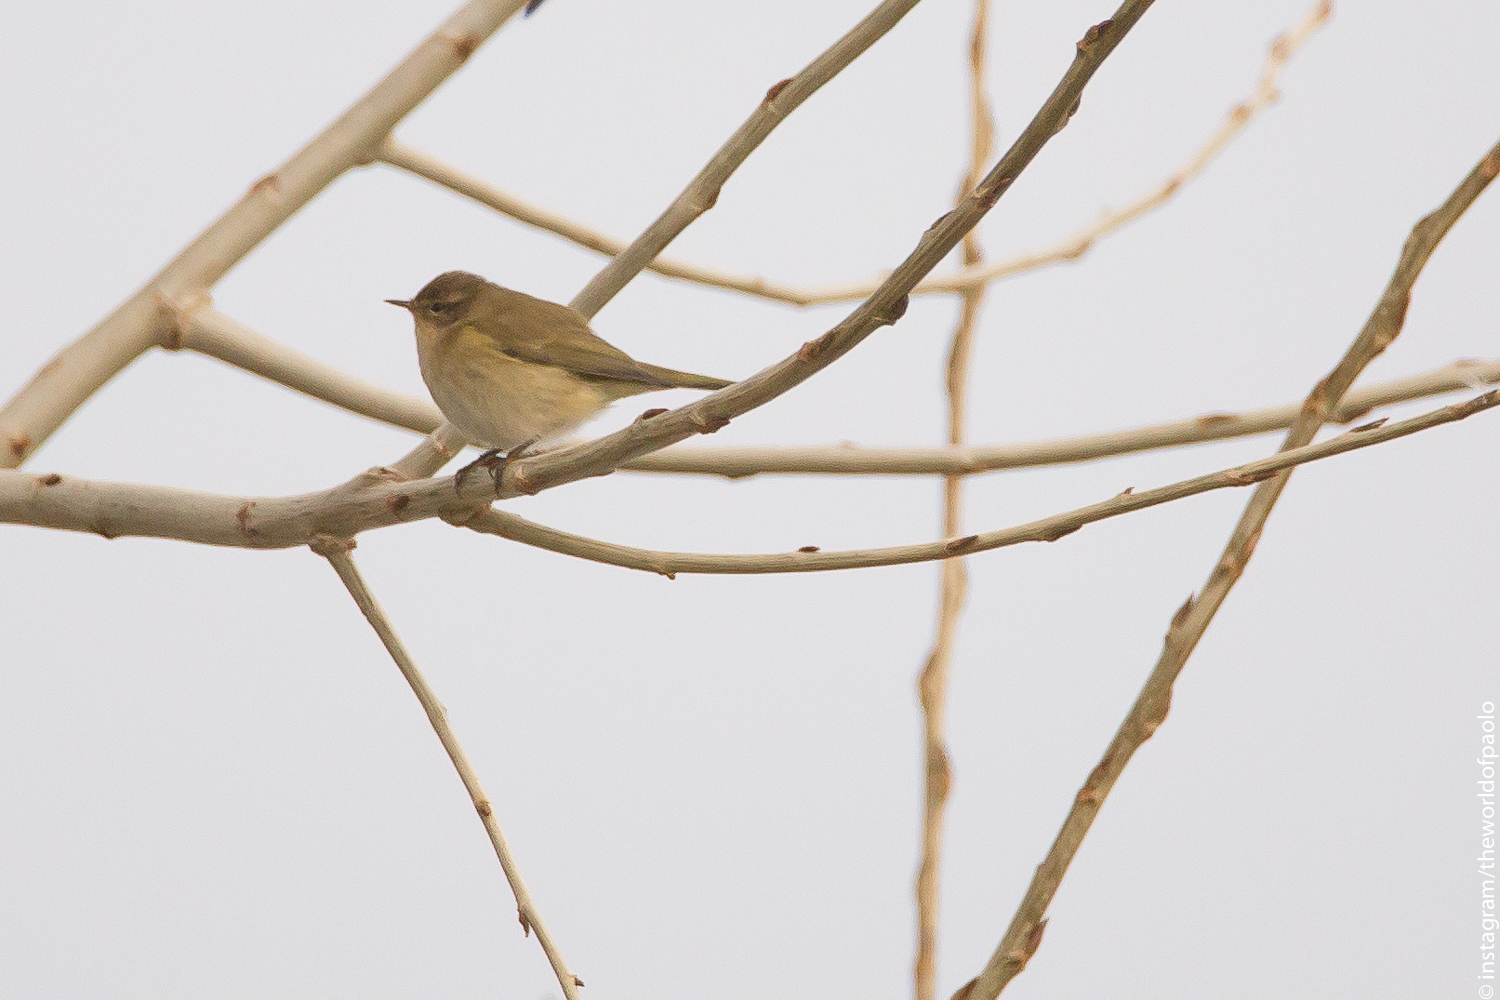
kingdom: Animalia
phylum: Chordata
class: Aves
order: Passeriformes
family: Phylloscopidae
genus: Phylloscopus
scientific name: Phylloscopus collybita
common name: Common chiffchaff
